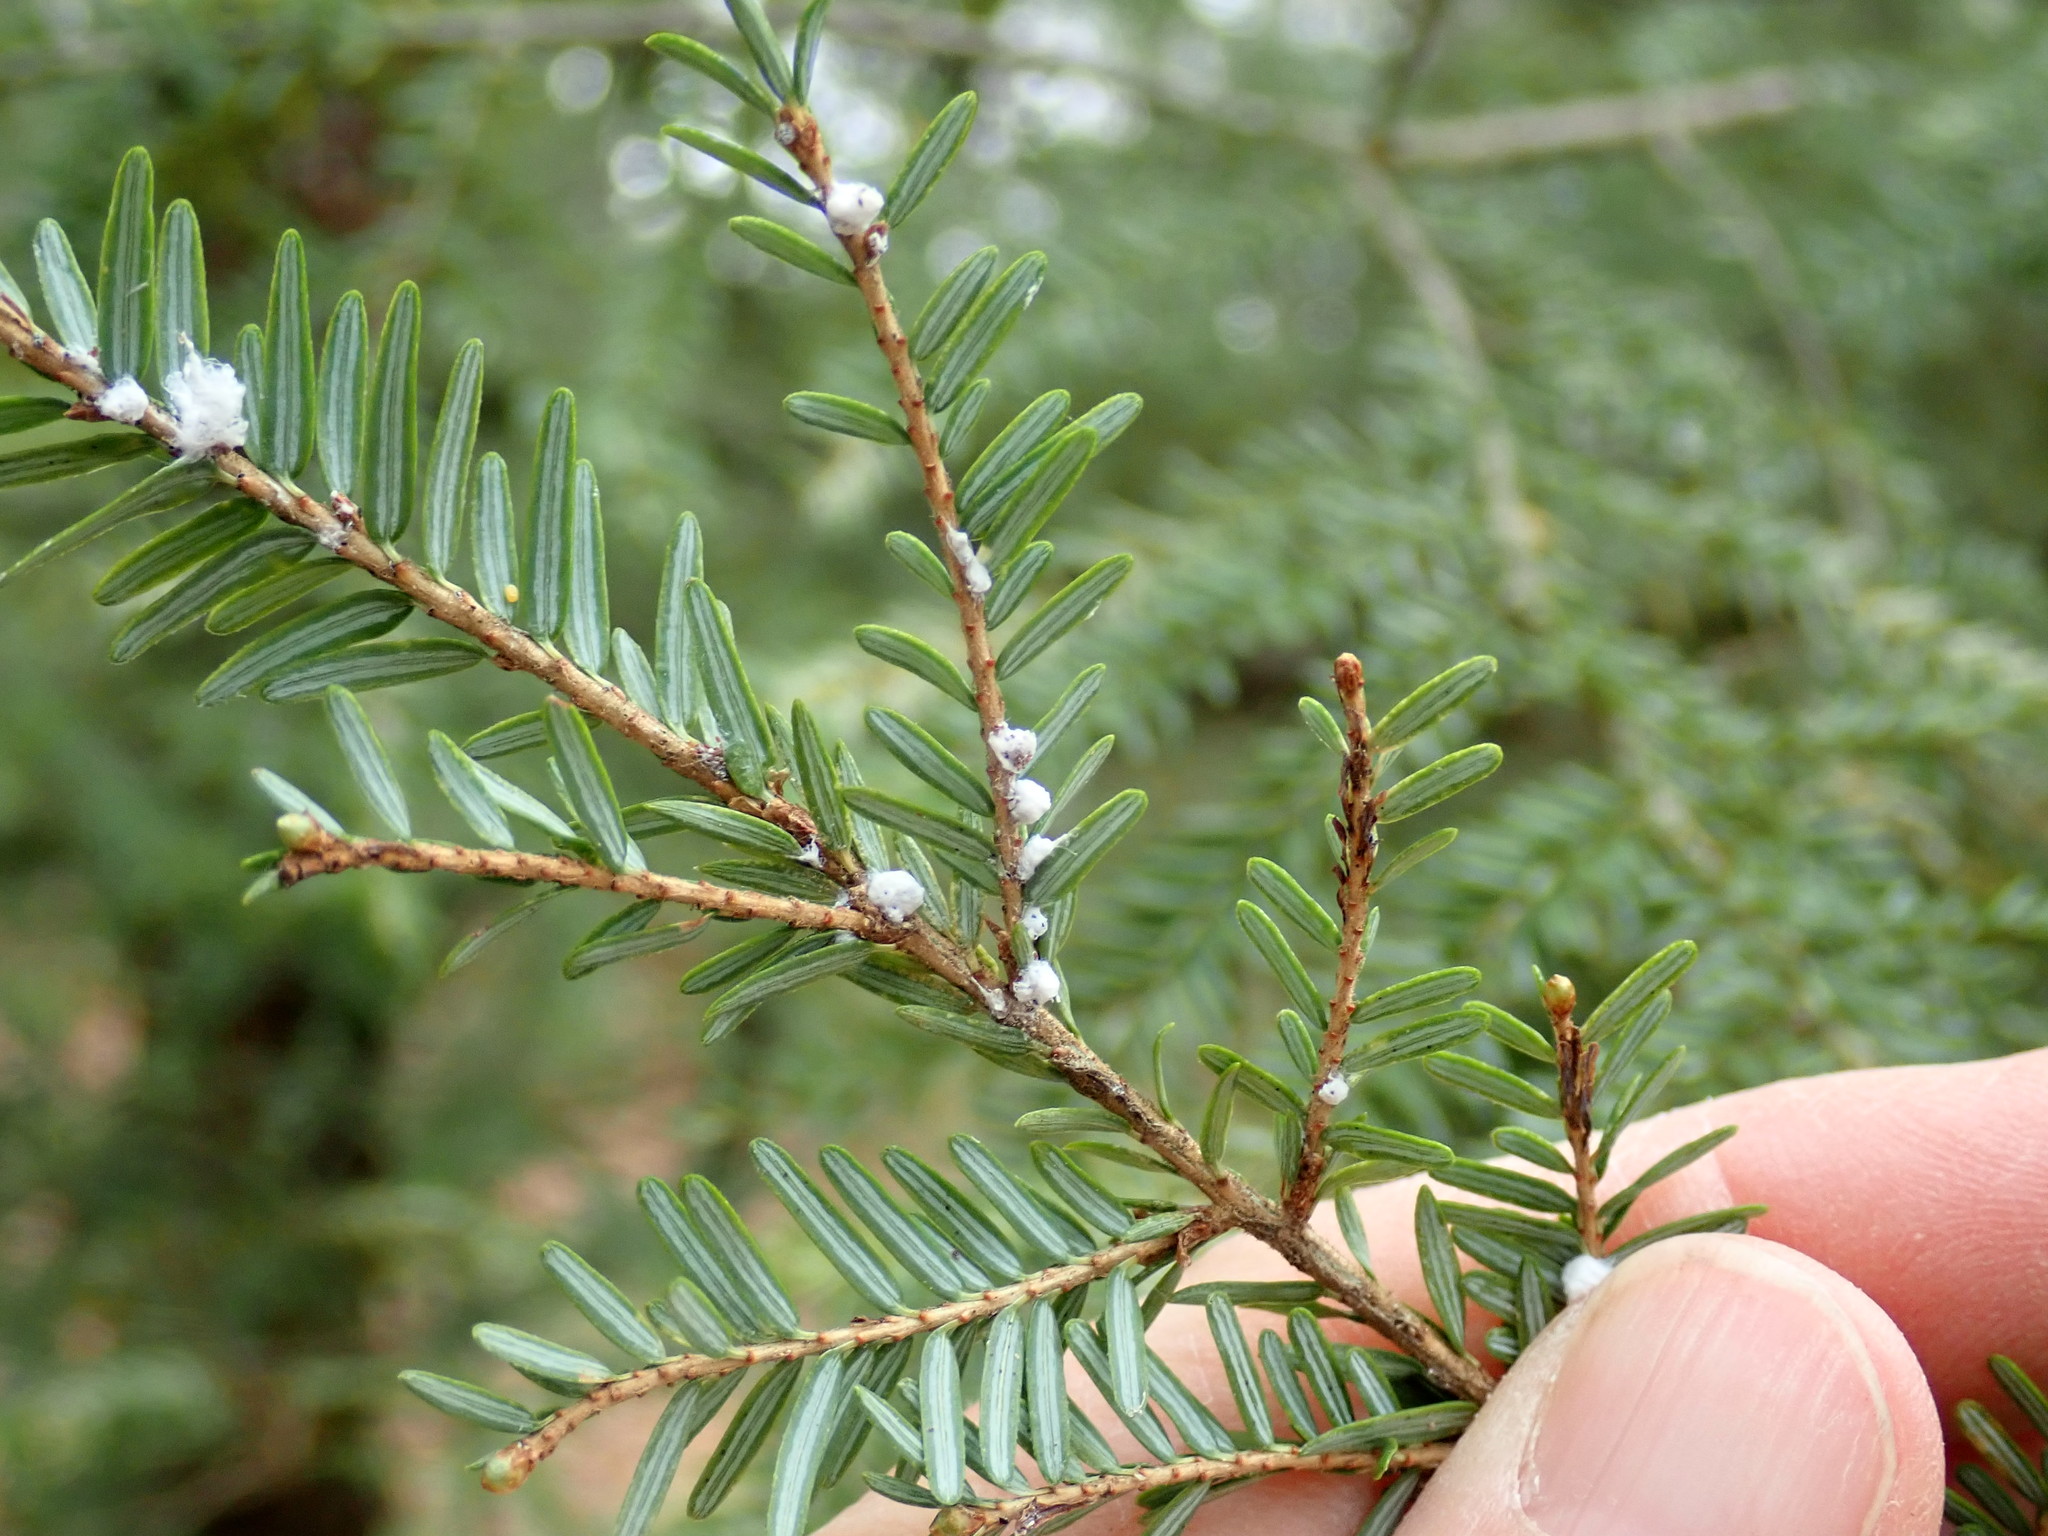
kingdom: Animalia
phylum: Arthropoda
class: Insecta
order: Hemiptera
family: Adelgidae
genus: Adelges
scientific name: Adelges tsugae
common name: Hemlock woolly adelgid
